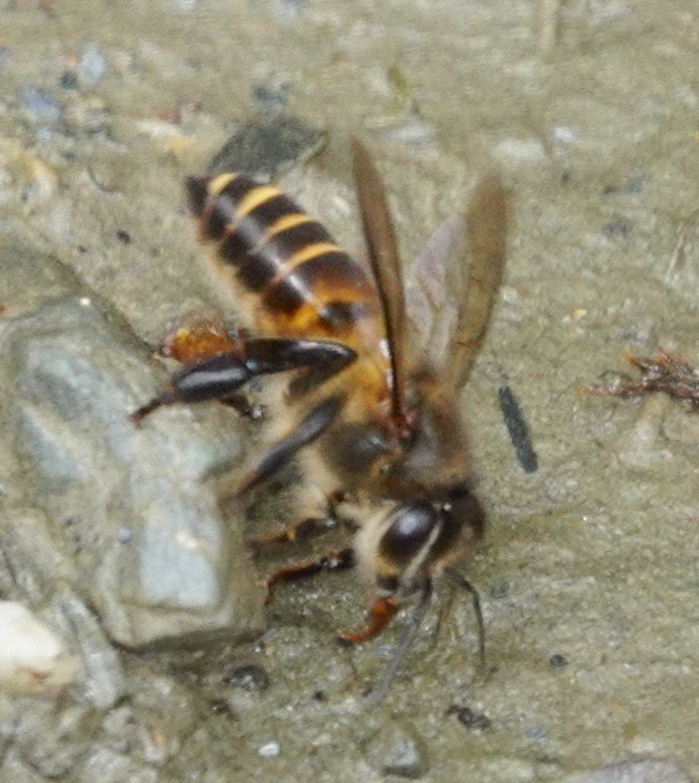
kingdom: Animalia
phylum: Arthropoda
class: Insecta
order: Hymenoptera
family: Apidae
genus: Apis
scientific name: Apis cerana
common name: Honey bee
